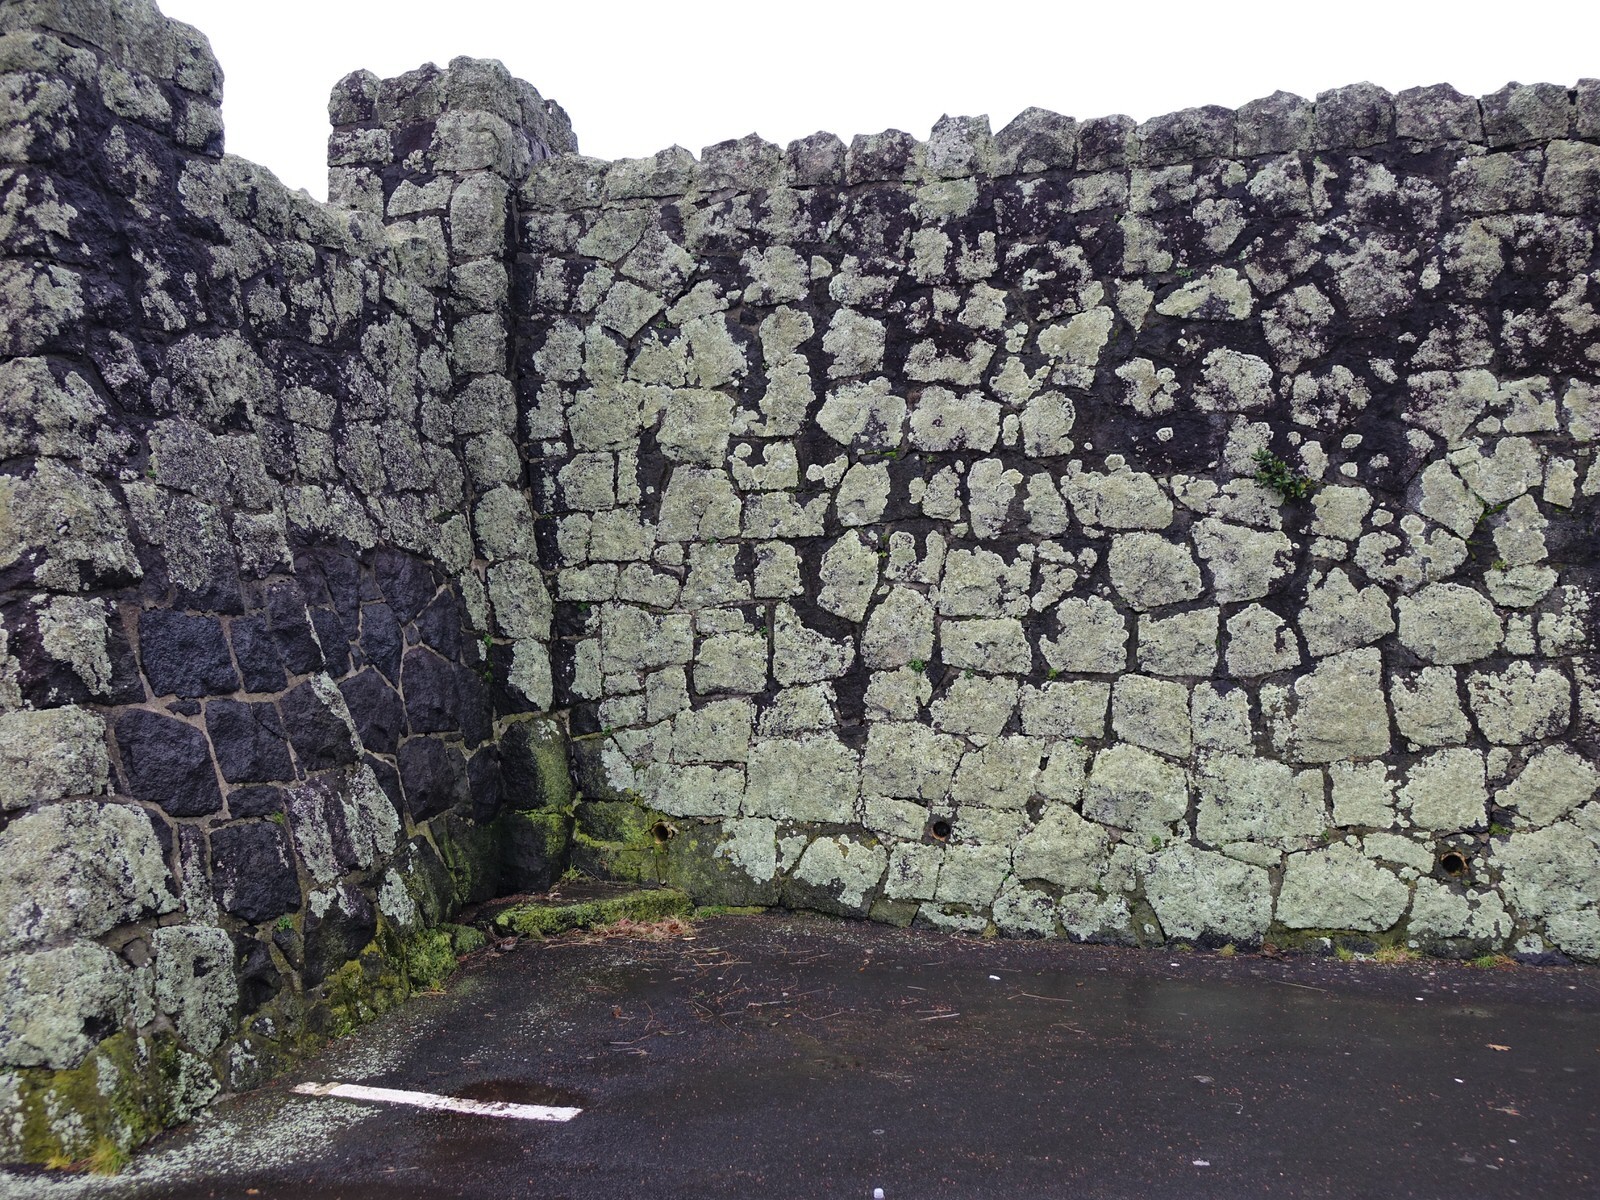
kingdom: Animalia
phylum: Chordata
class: Aves
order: Passeriformes
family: Passeridae
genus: Passer
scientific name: Passer domesticus
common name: House sparrow
